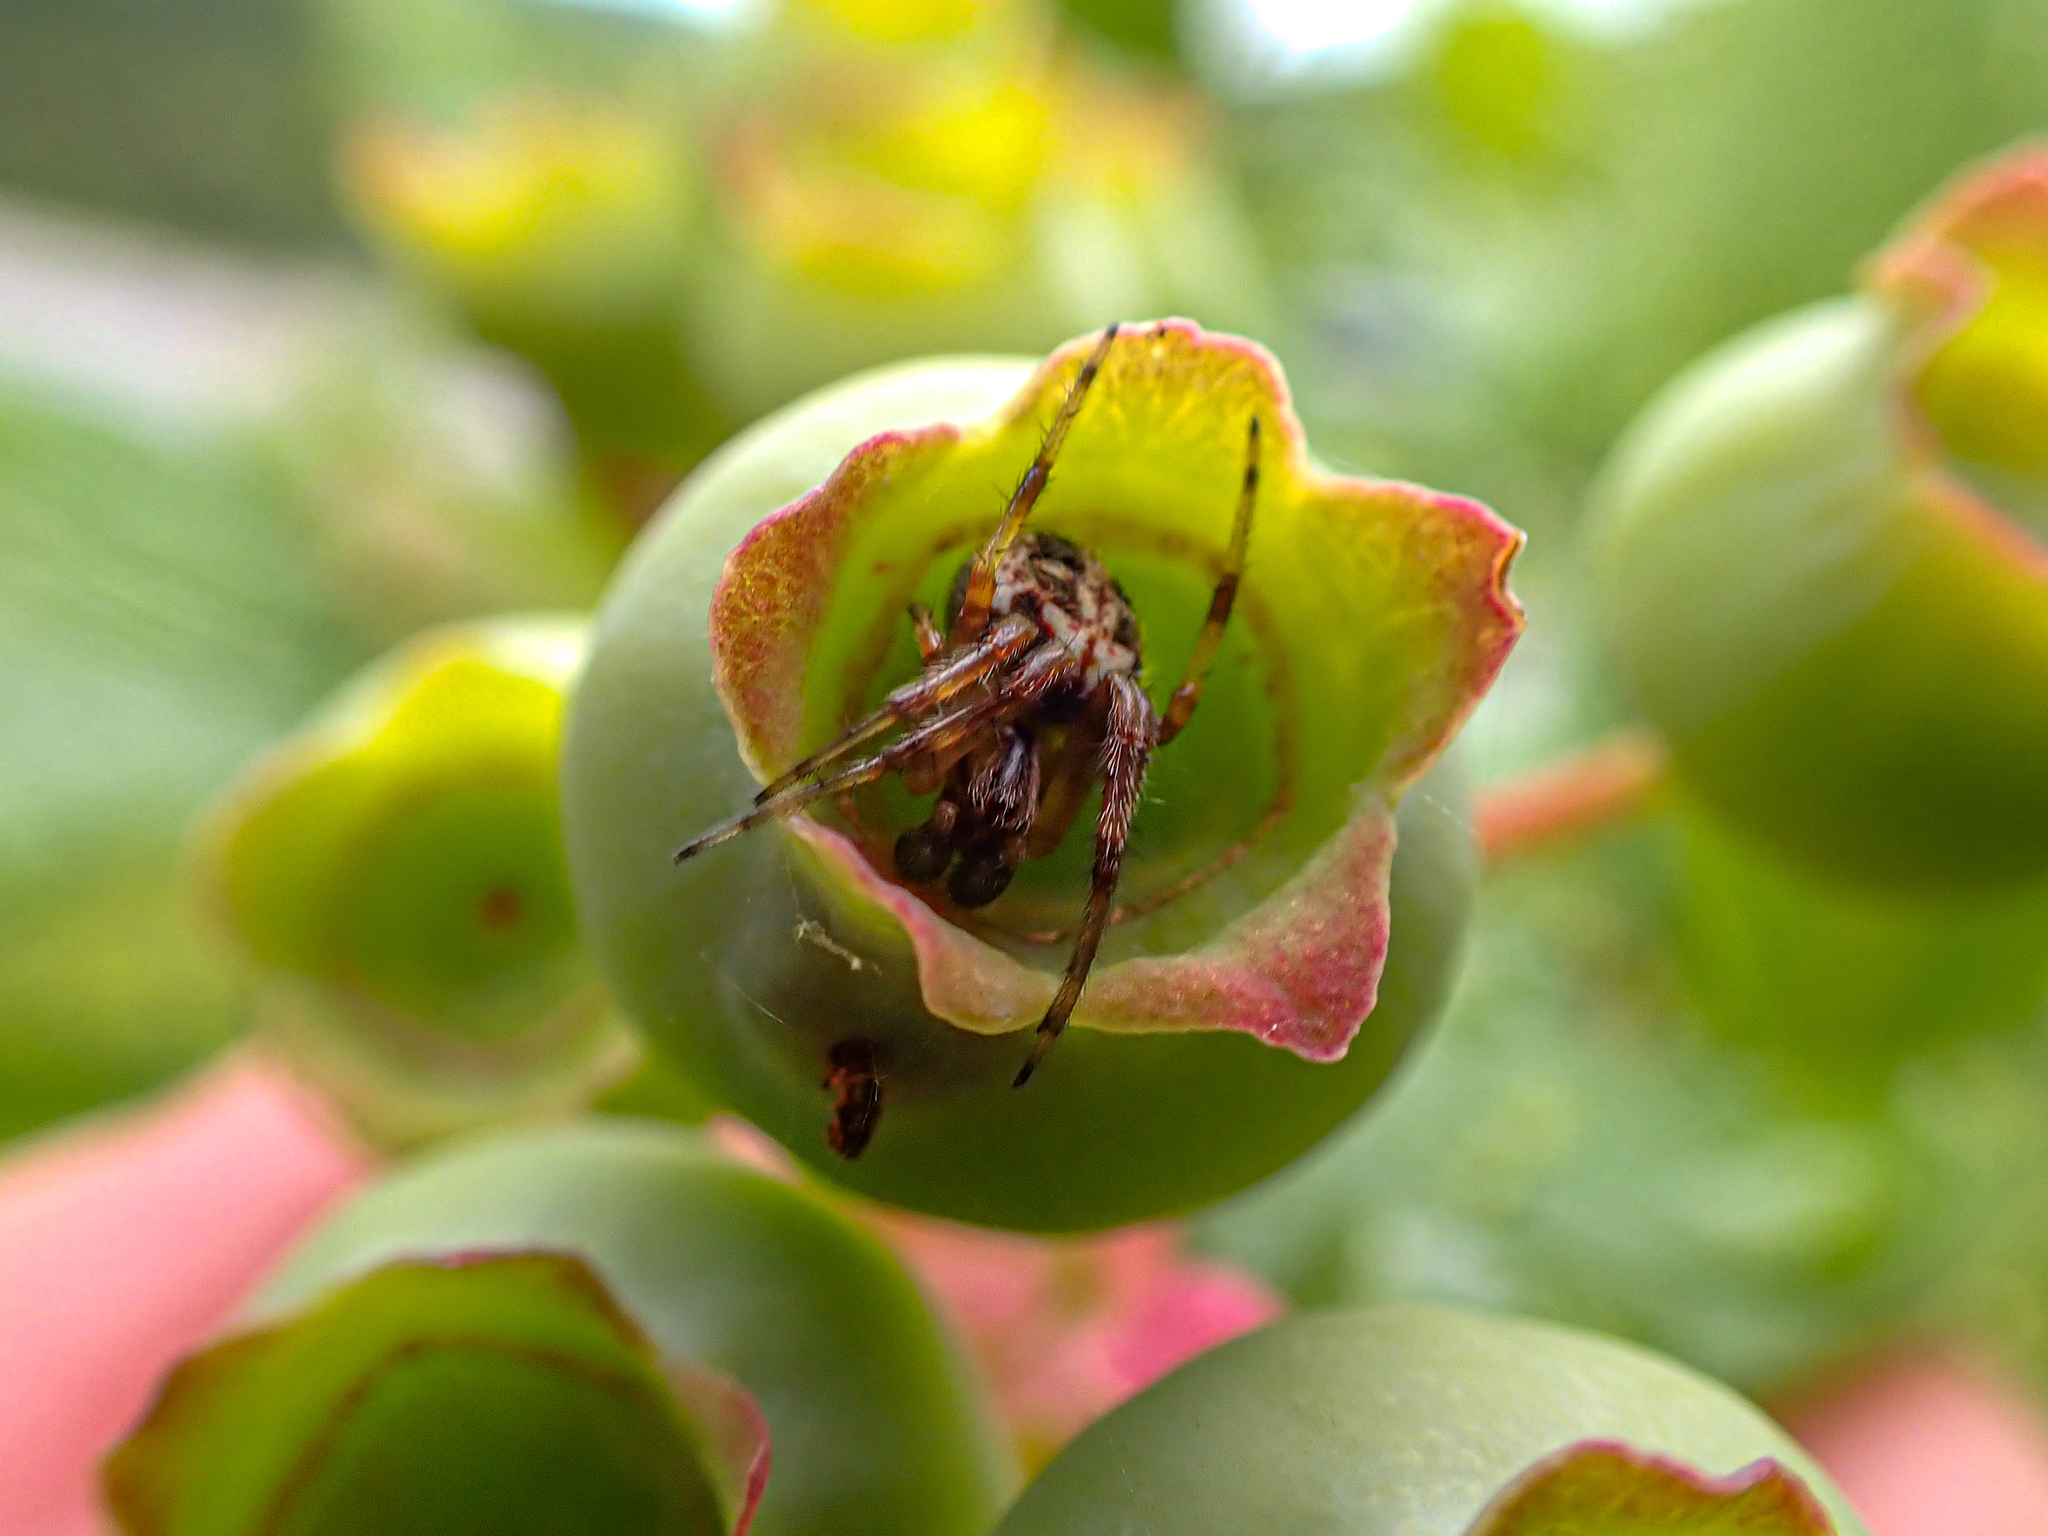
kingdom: Animalia
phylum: Arthropoda
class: Arachnida
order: Araneae
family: Araneidae
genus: Neoscona
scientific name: Neoscona arabesca
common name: Orb weavers
